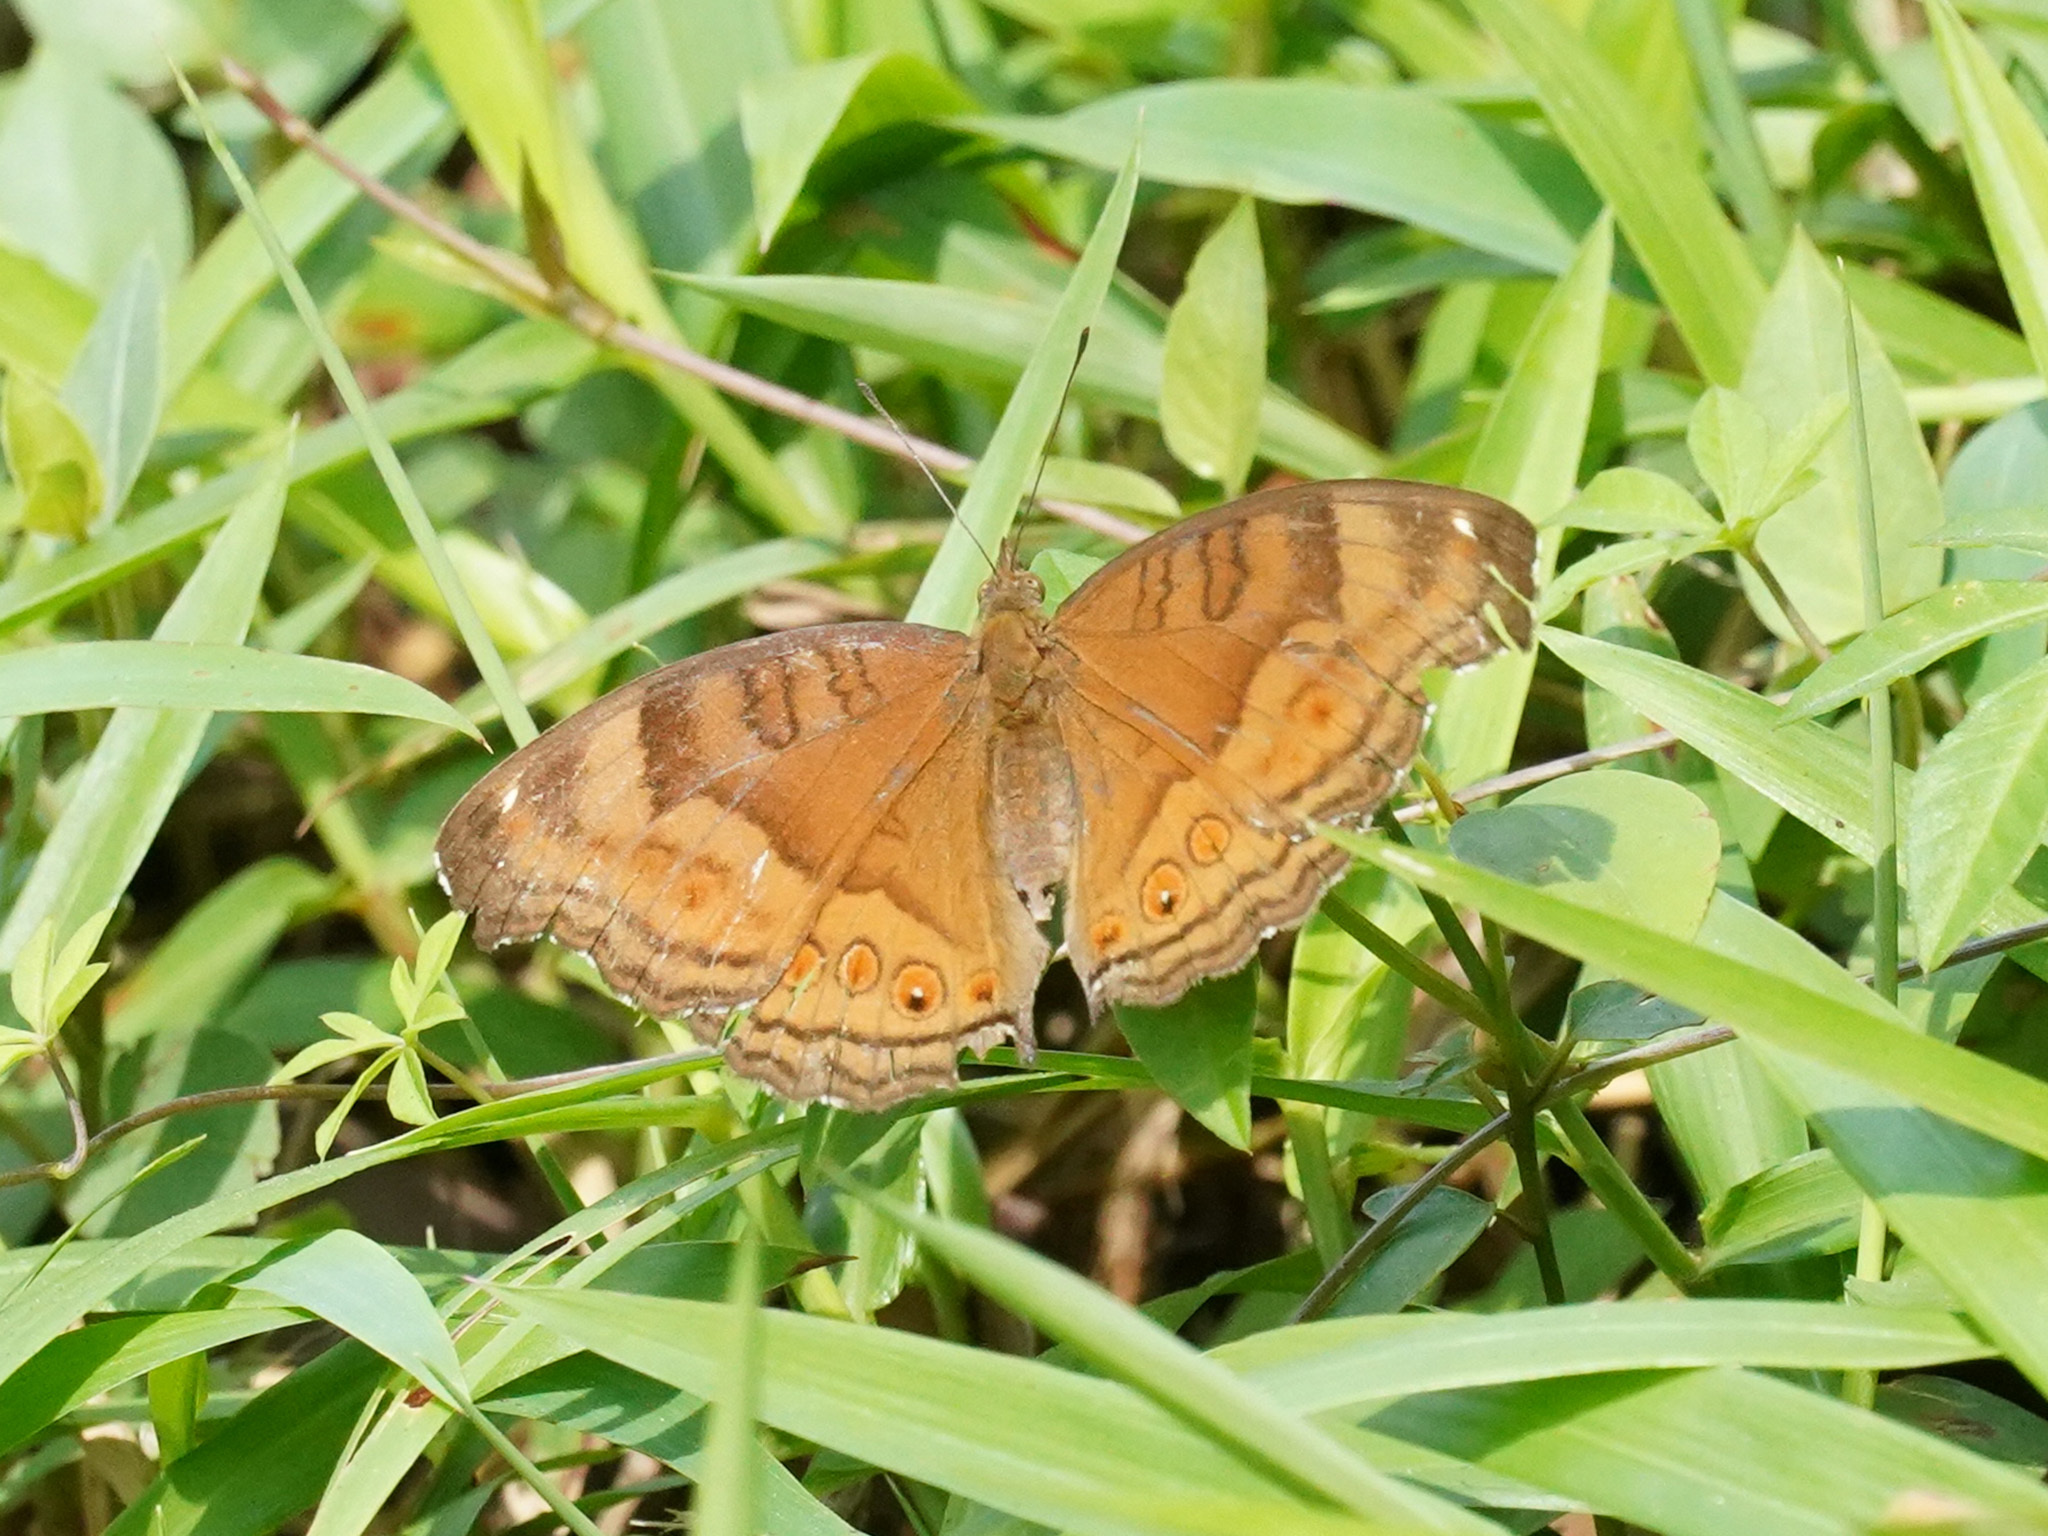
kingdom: Animalia
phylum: Arthropoda
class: Insecta
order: Lepidoptera
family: Nymphalidae
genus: Junonia
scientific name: Junonia hedonia
